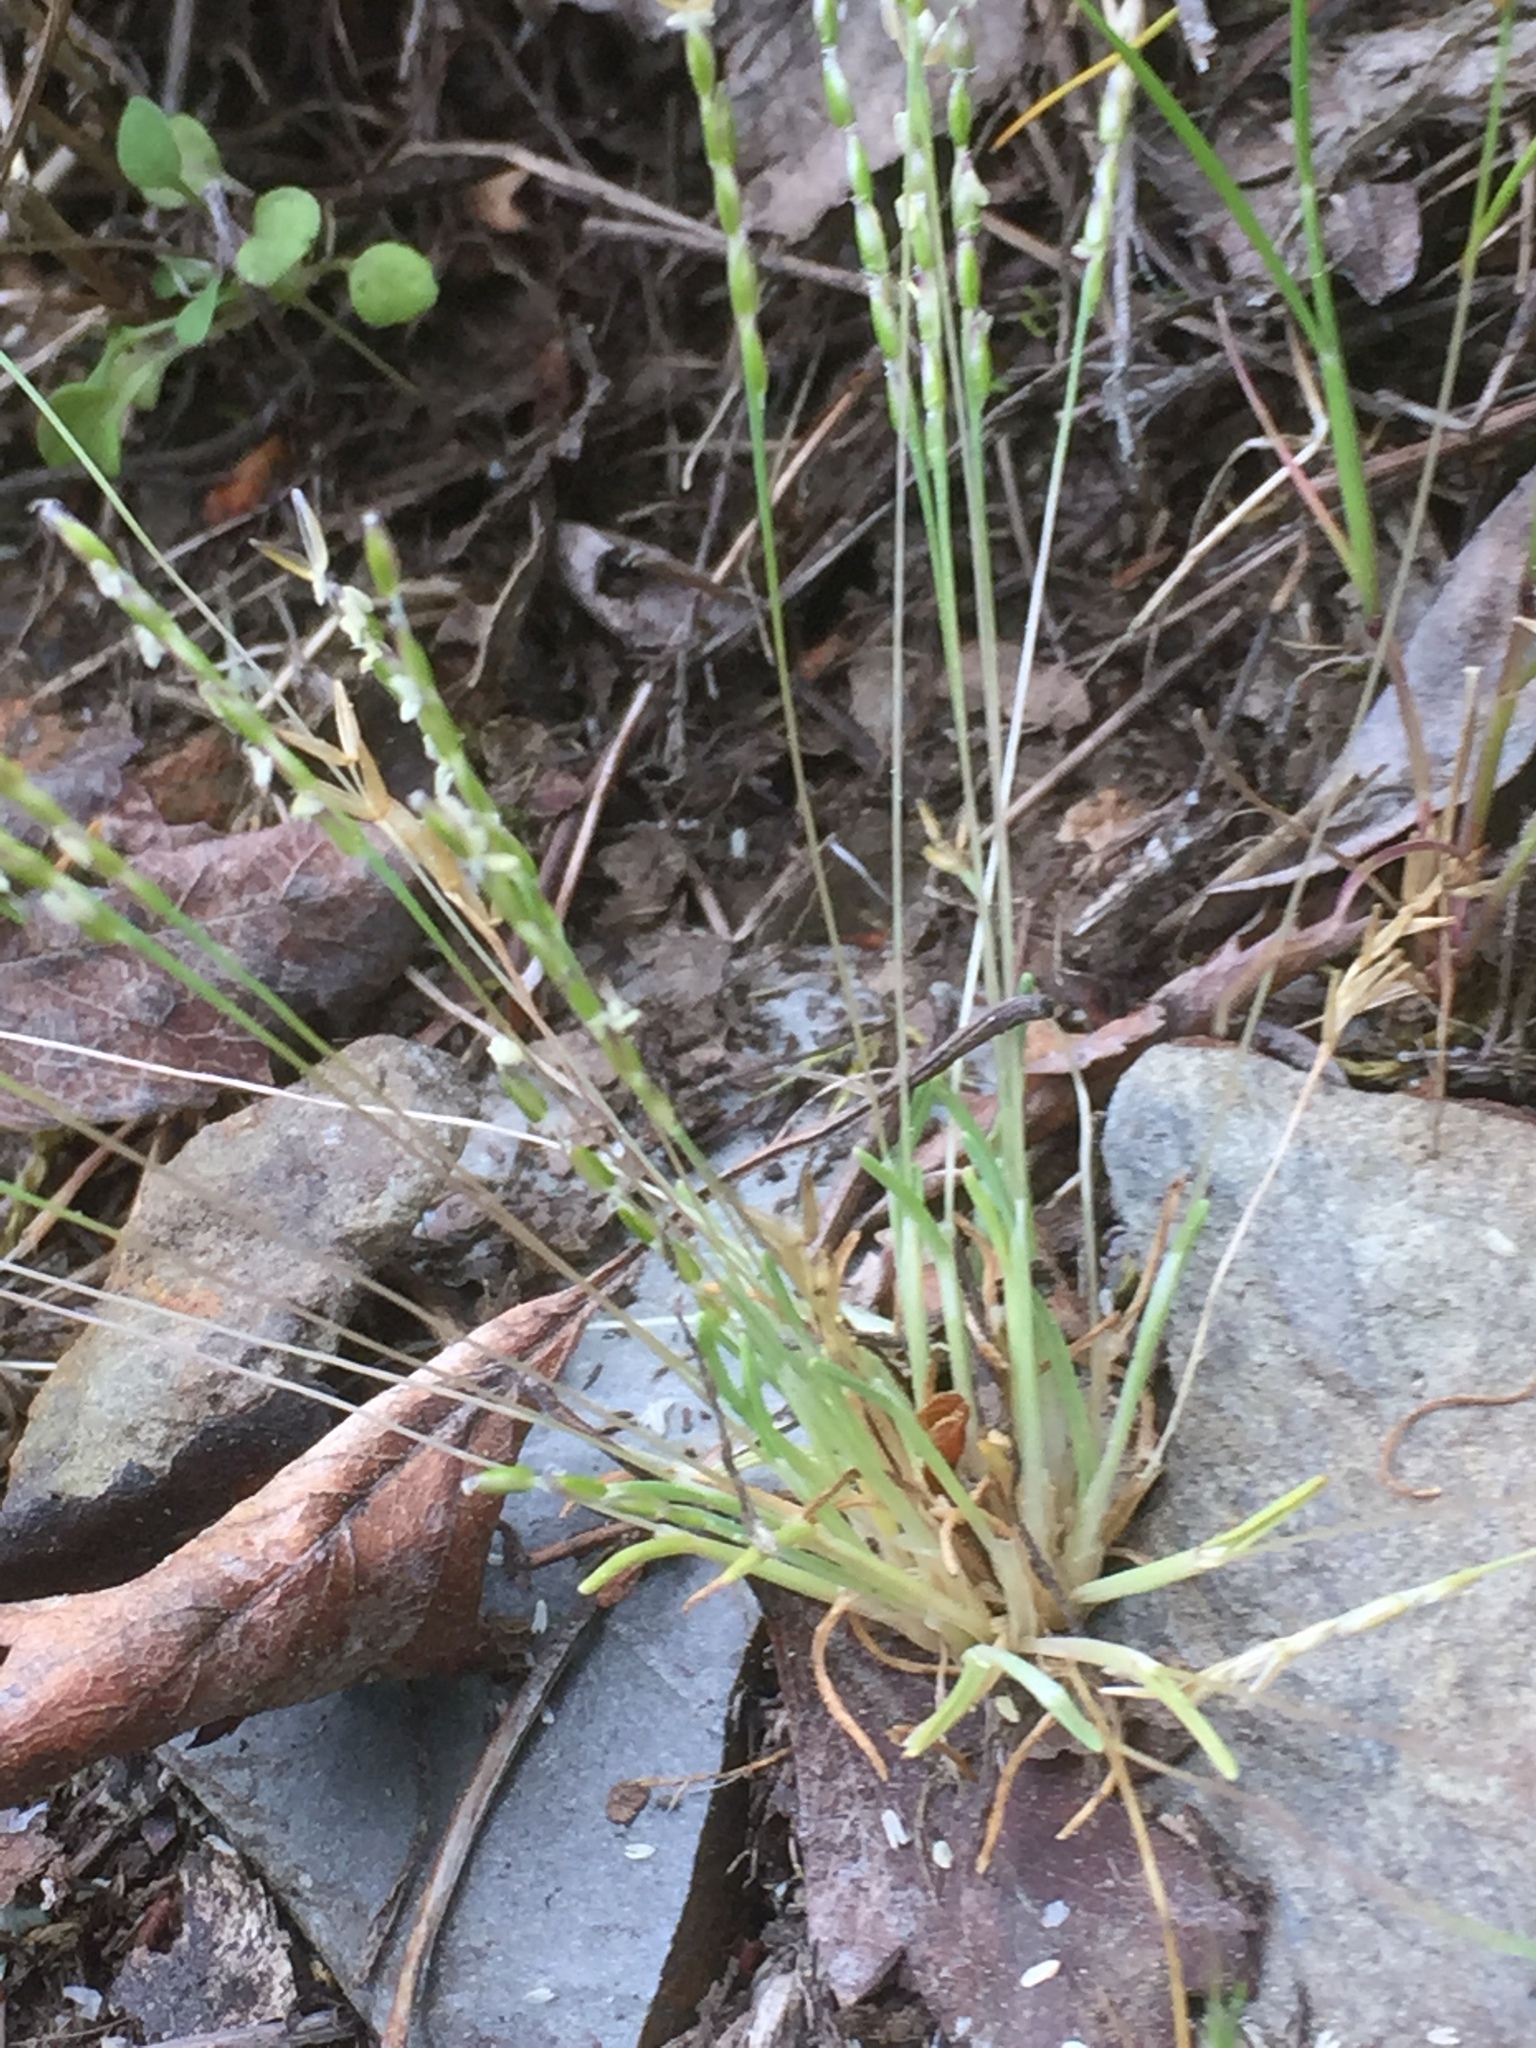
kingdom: Plantae
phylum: Tracheophyta
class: Liliopsida
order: Poales
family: Poaceae
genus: Mibora
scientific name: Mibora minima
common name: Early sand-grass
